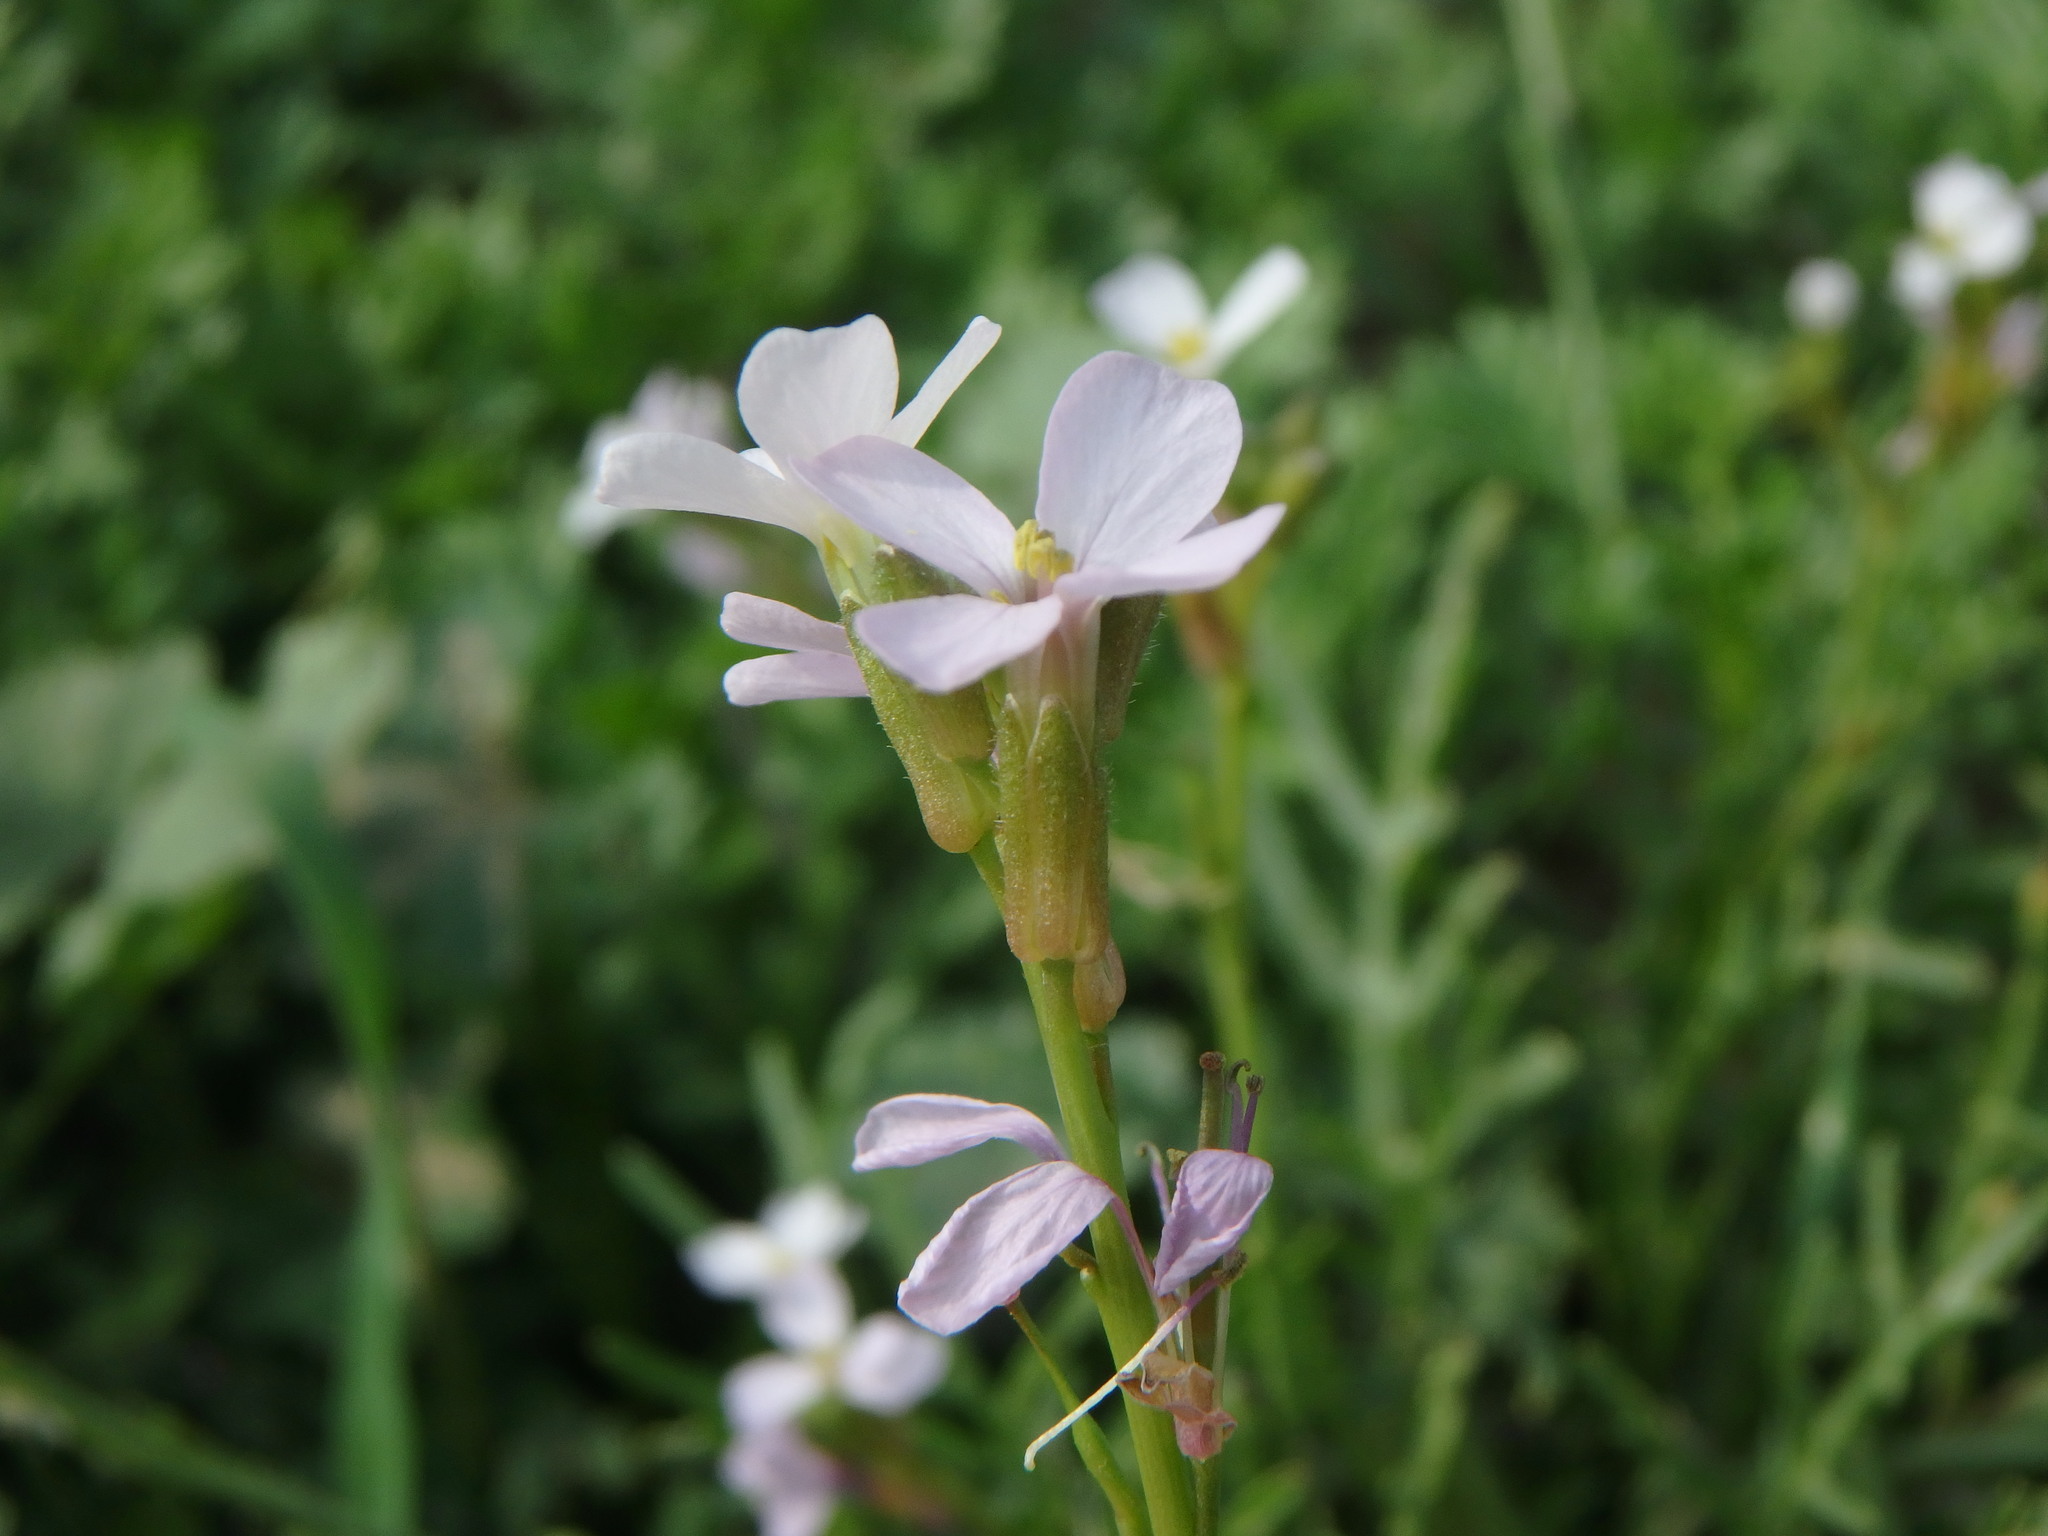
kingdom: Plantae
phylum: Tracheophyta
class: Magnoliopsida
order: Brassicales
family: Brassicaceae
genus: Erucaria
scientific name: Erucaria hispanica
